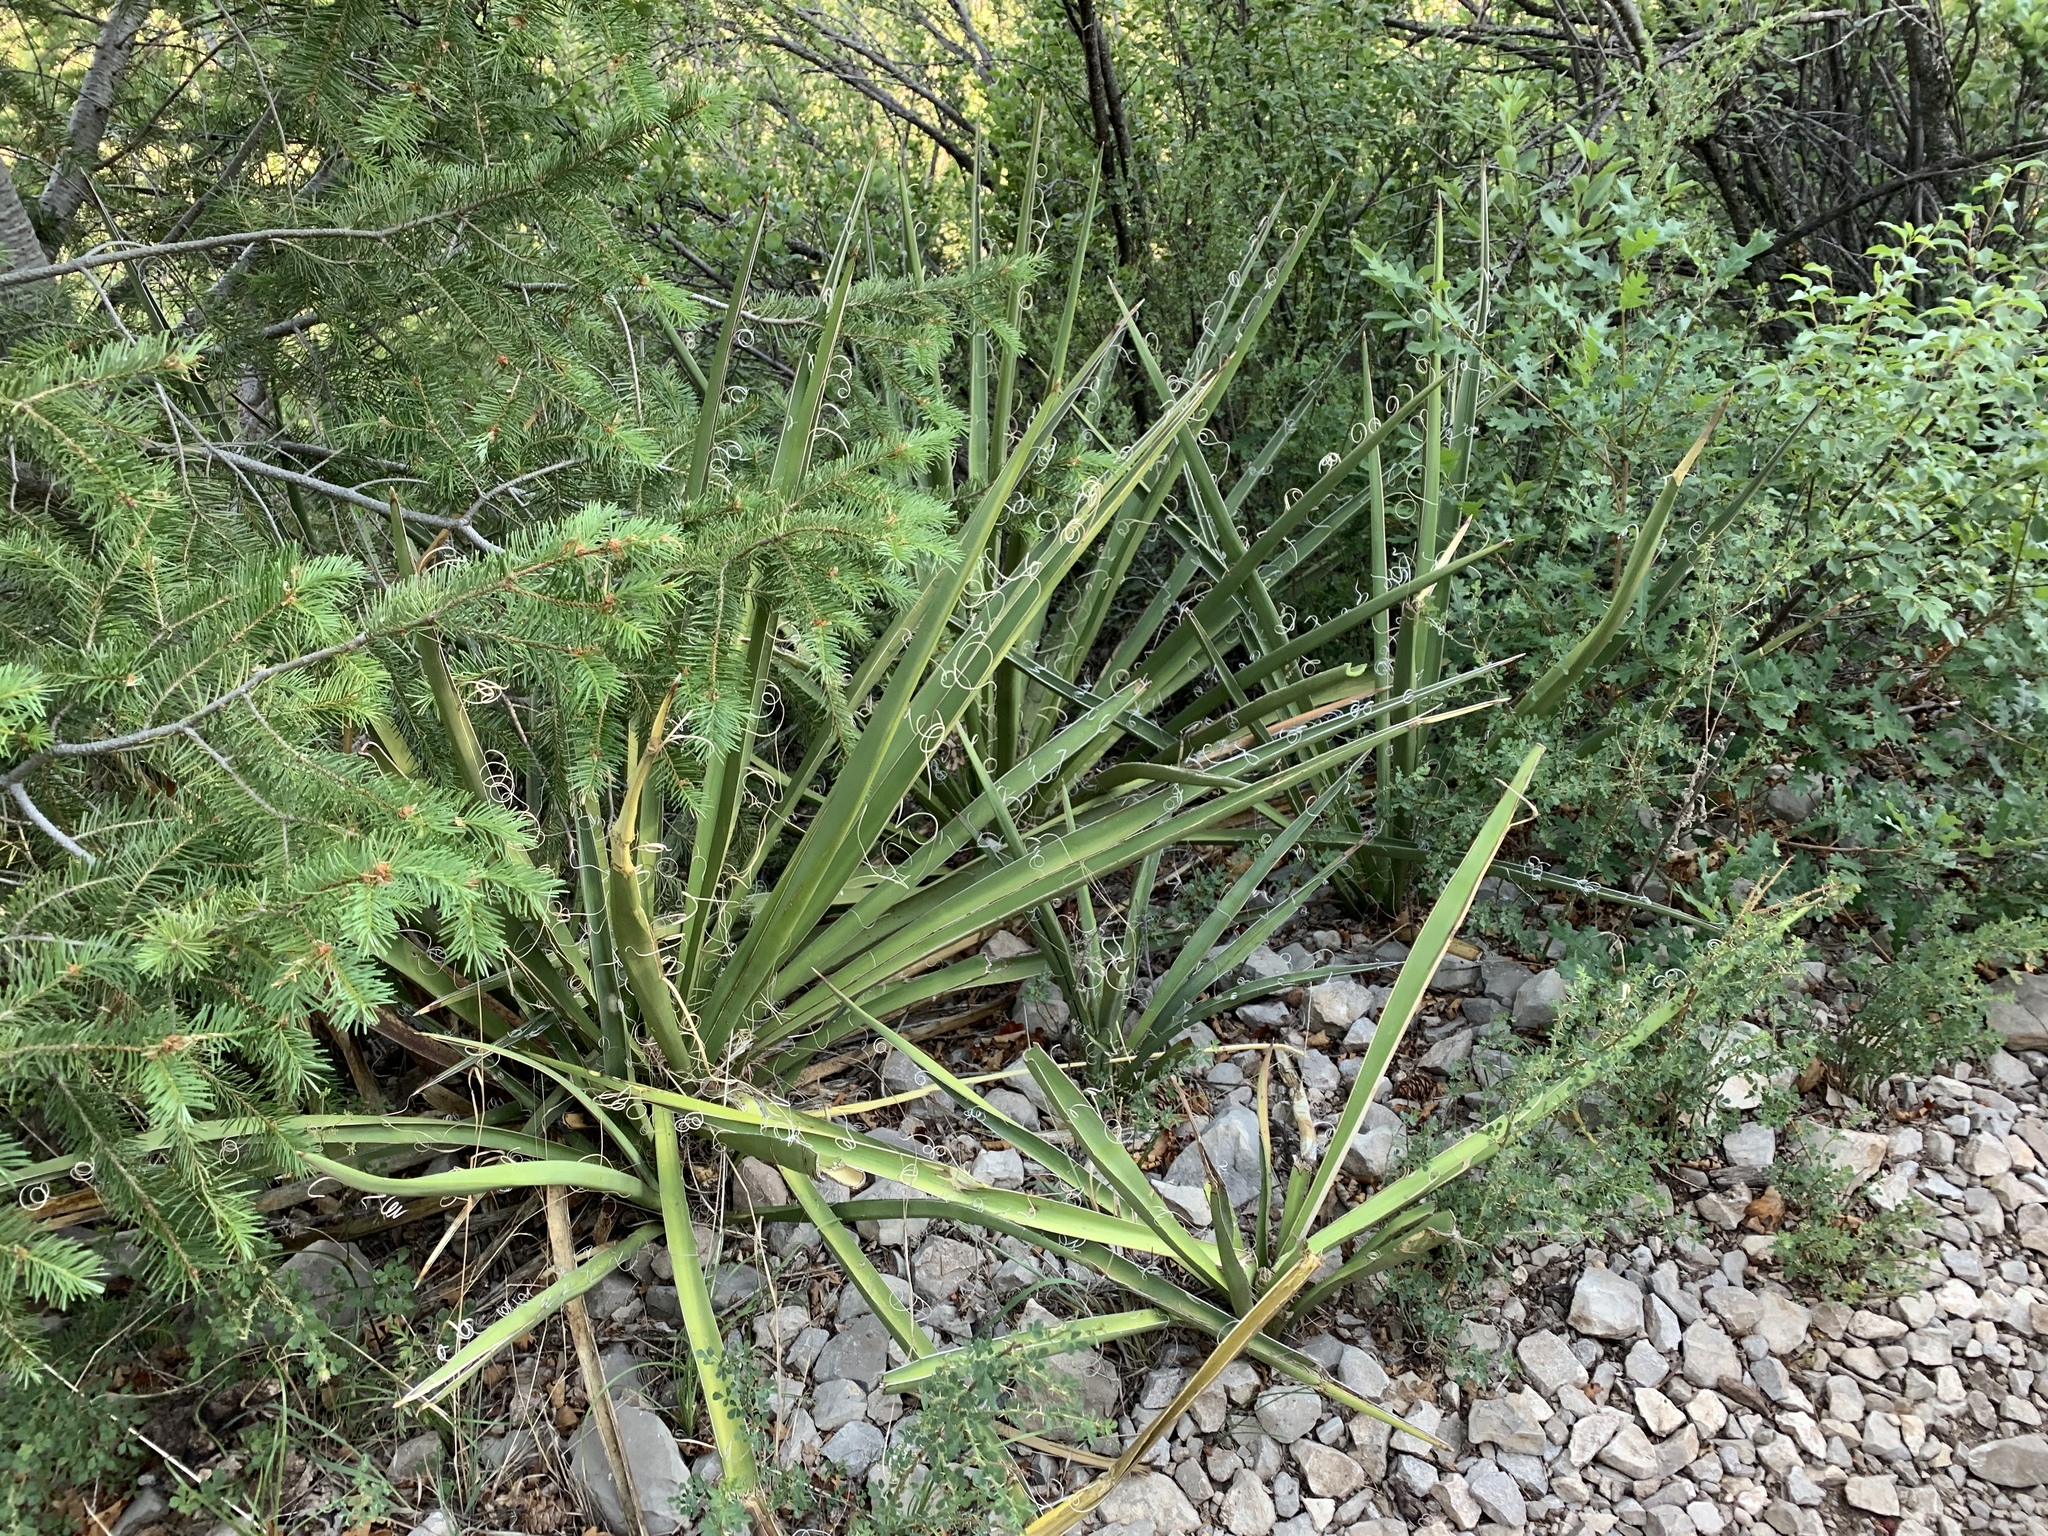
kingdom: Plantae
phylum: Tracheophyta
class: Liliopsida
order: Asparagales
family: Asparagaceae
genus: Yucca
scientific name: Yucca baccata
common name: Banana yucca
